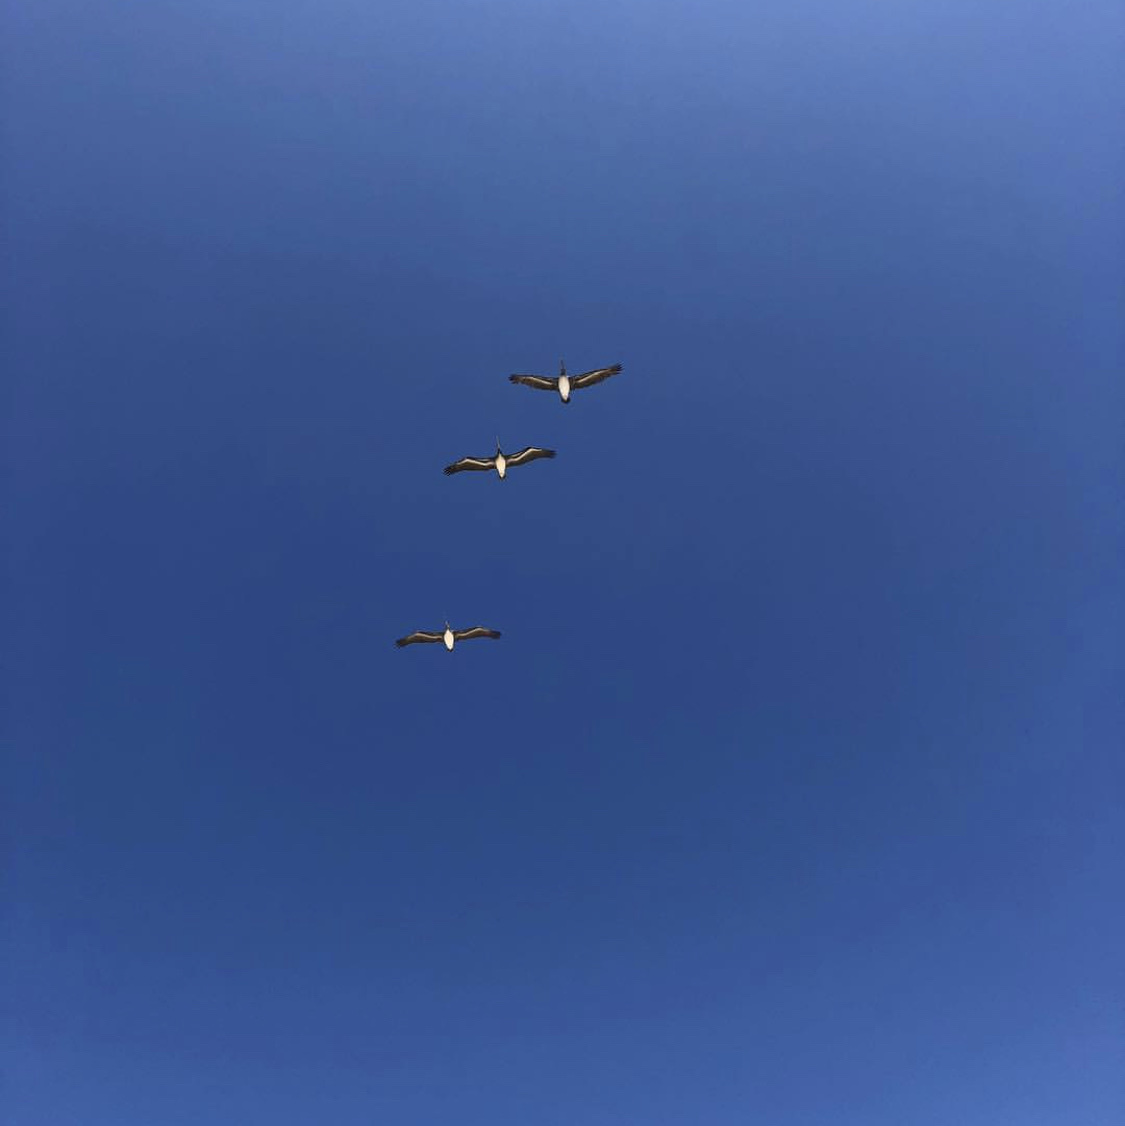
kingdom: Animalia
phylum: Chordata
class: Aves
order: Pelecaniformes
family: Pelecanidae
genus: Pelecanus
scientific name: Pelecanus occidentalis
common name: Brown pelican
